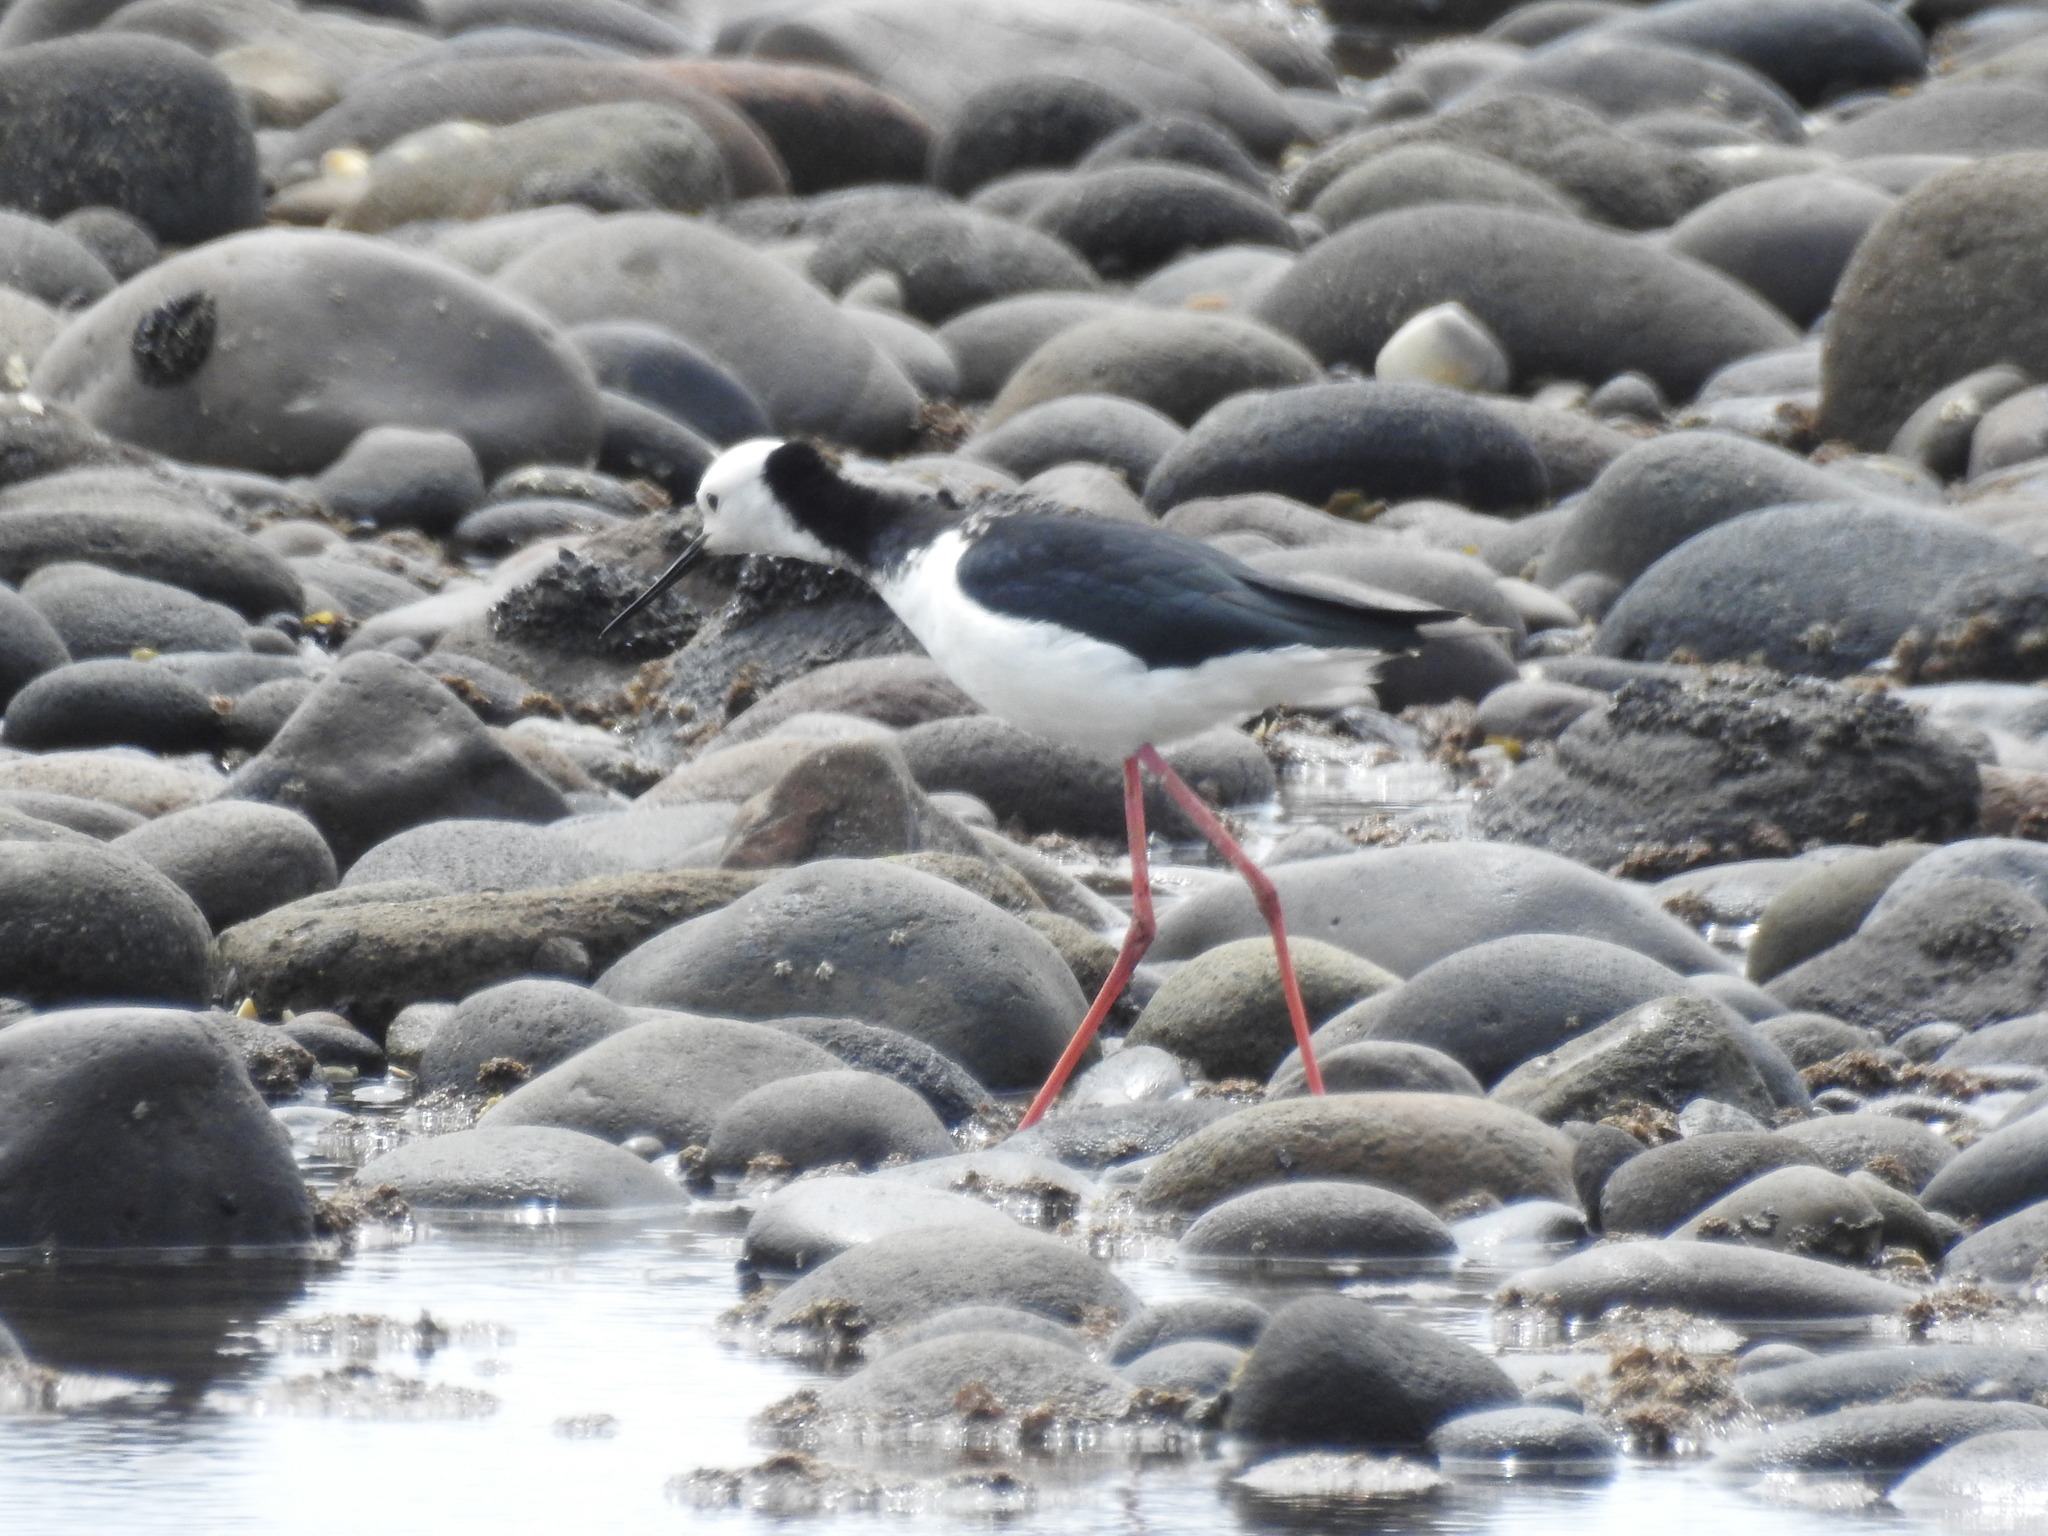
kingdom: Animalia
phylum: Chordata
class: Aves
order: Charadriiformes
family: Recurvirostridae
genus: Himantopus
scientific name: Himantopus leucocephalus
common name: White-headed stilt
